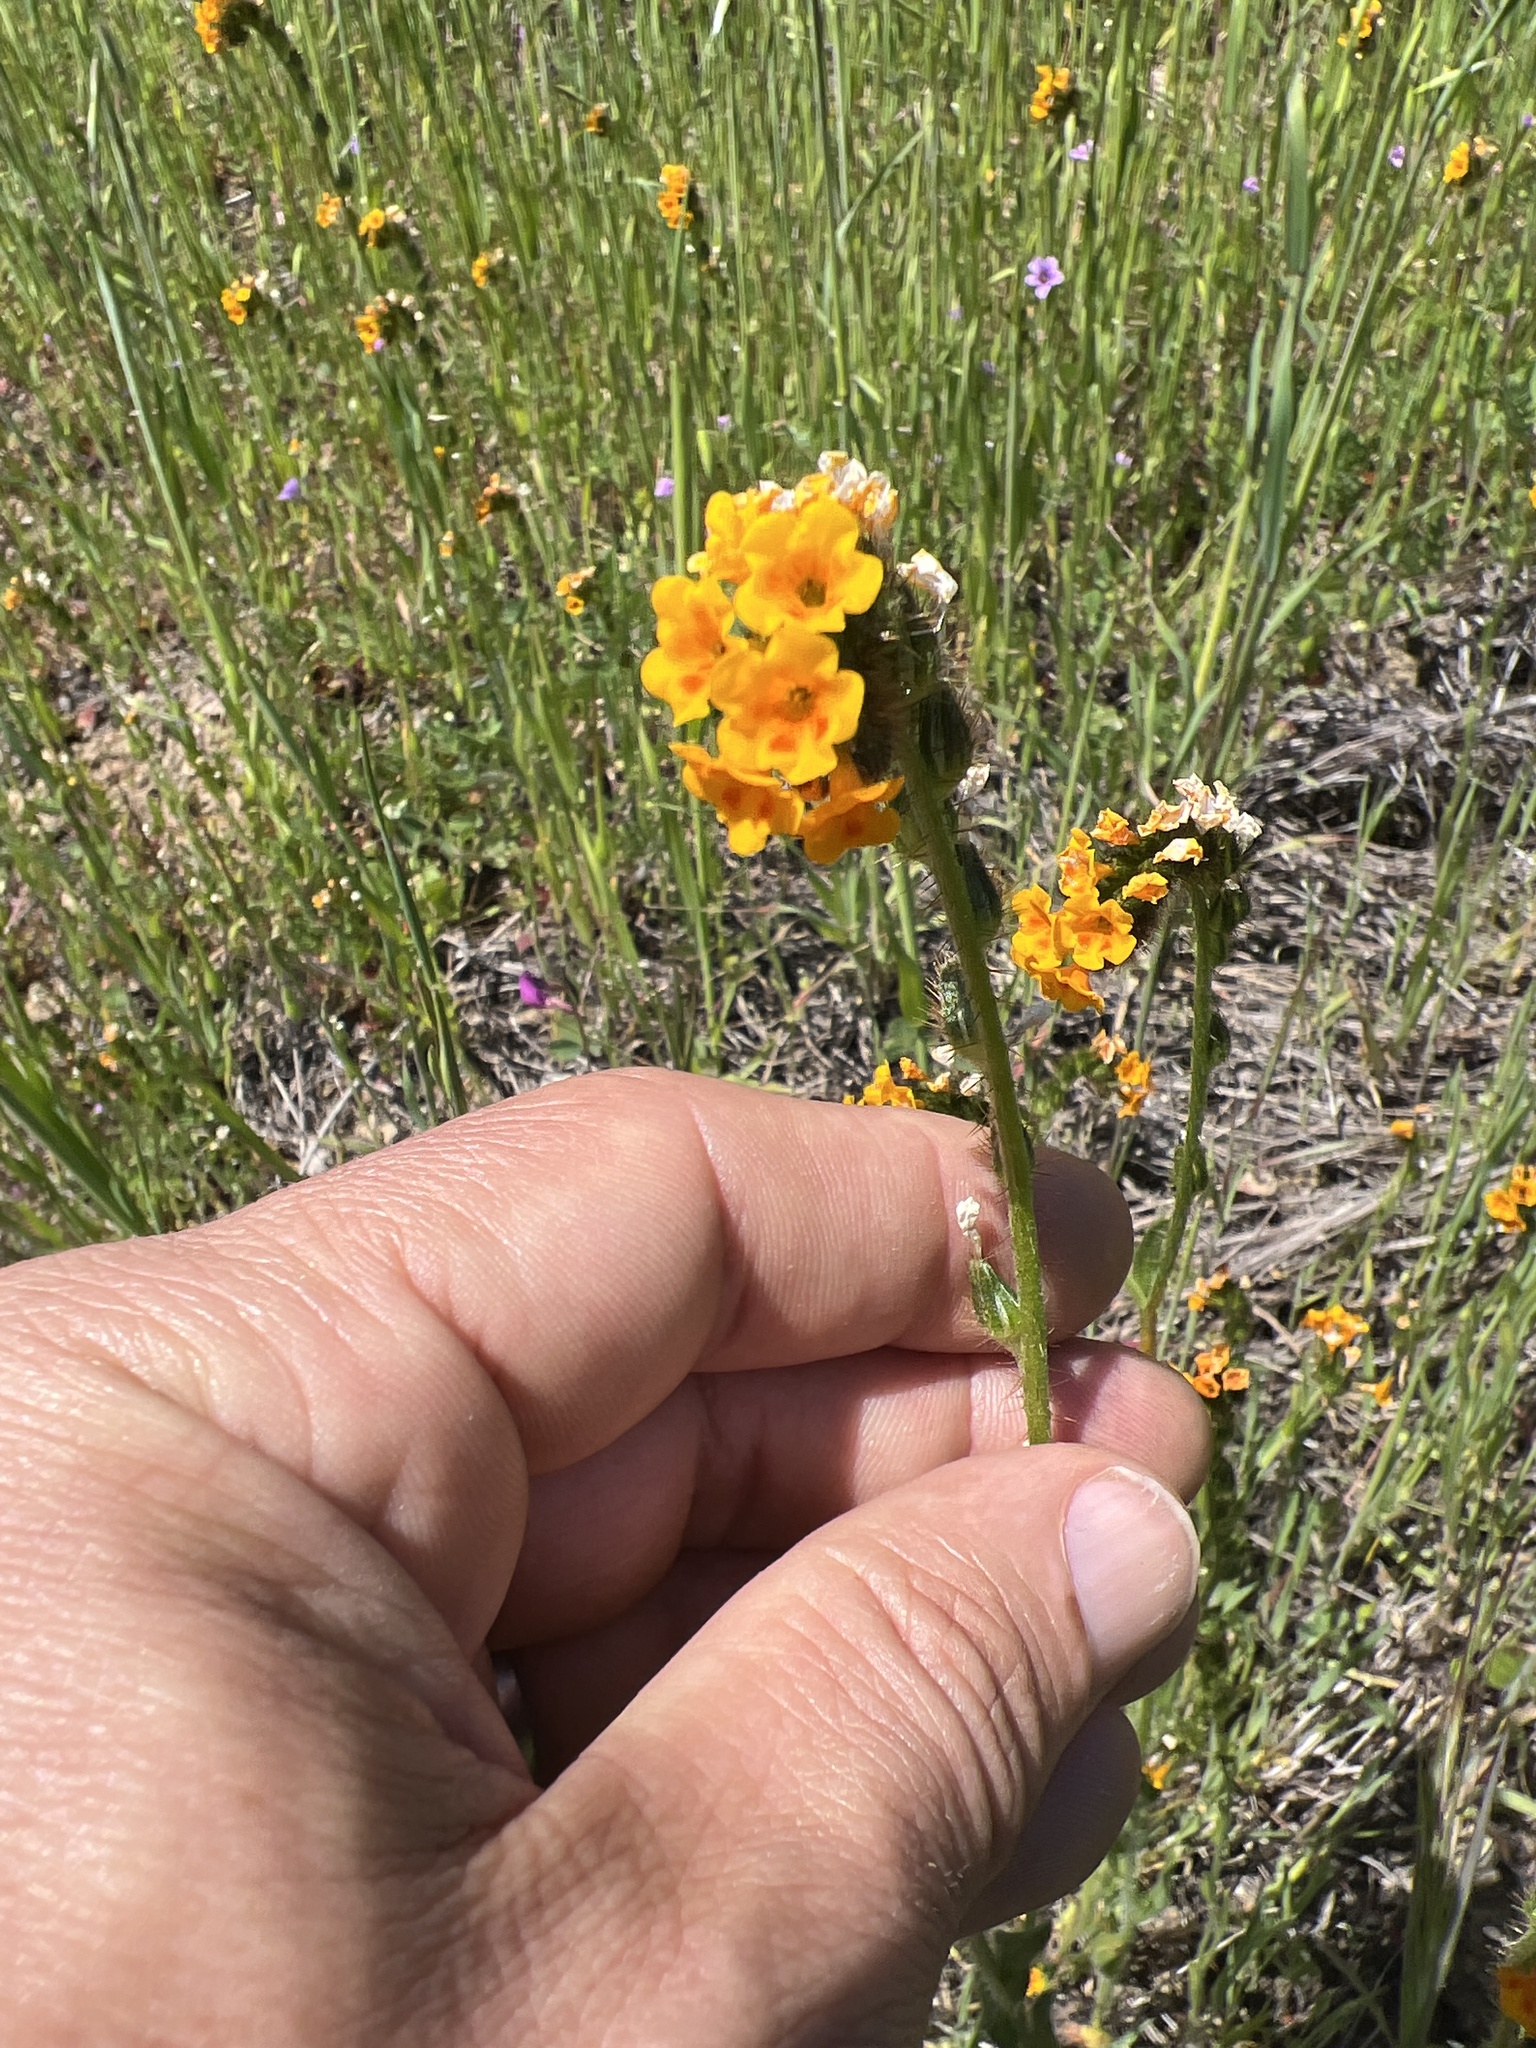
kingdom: Plantae
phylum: Tracheophyta
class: Magnoliopsida
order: Boraginales
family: Boraginaceae
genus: Amsinckia
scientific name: Amsinckia menziesii
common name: Menzies' fiddleneck
